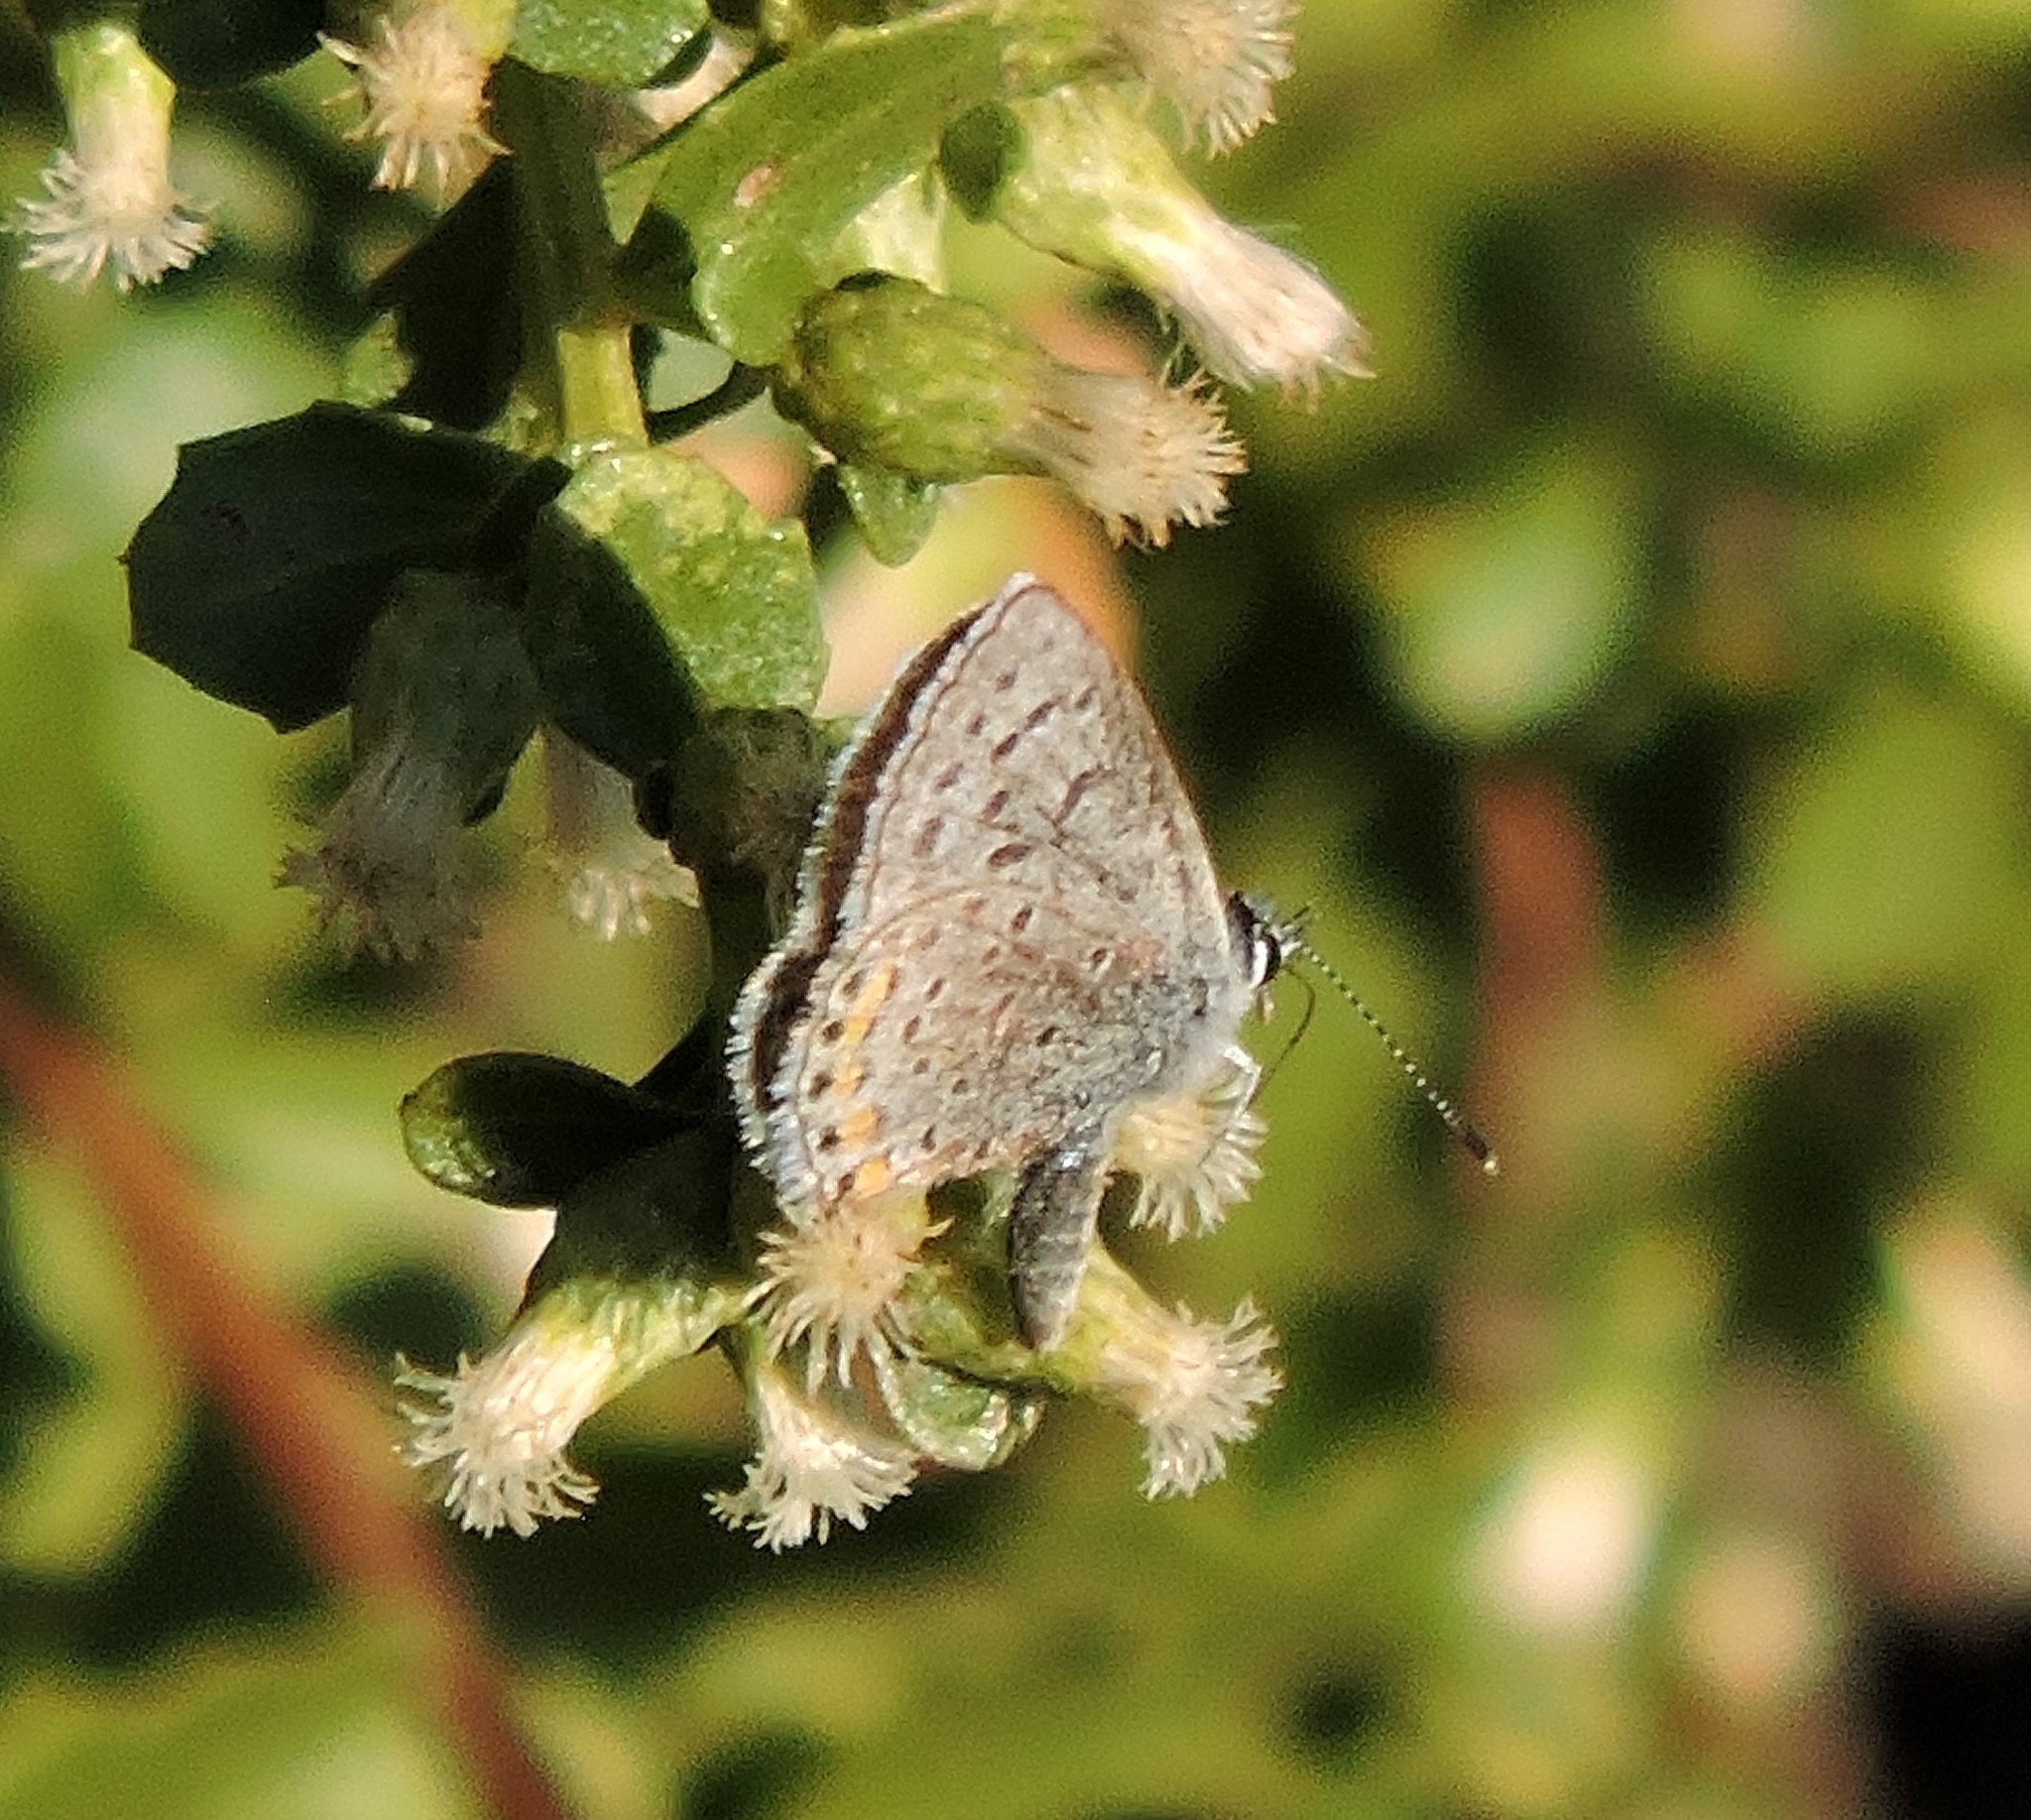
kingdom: Animalia
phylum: Arthropoda
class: Insecta
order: Lepidoptera
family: Lycaenidae
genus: Icaricia
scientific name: Icaricia acmon
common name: Acmon blue
